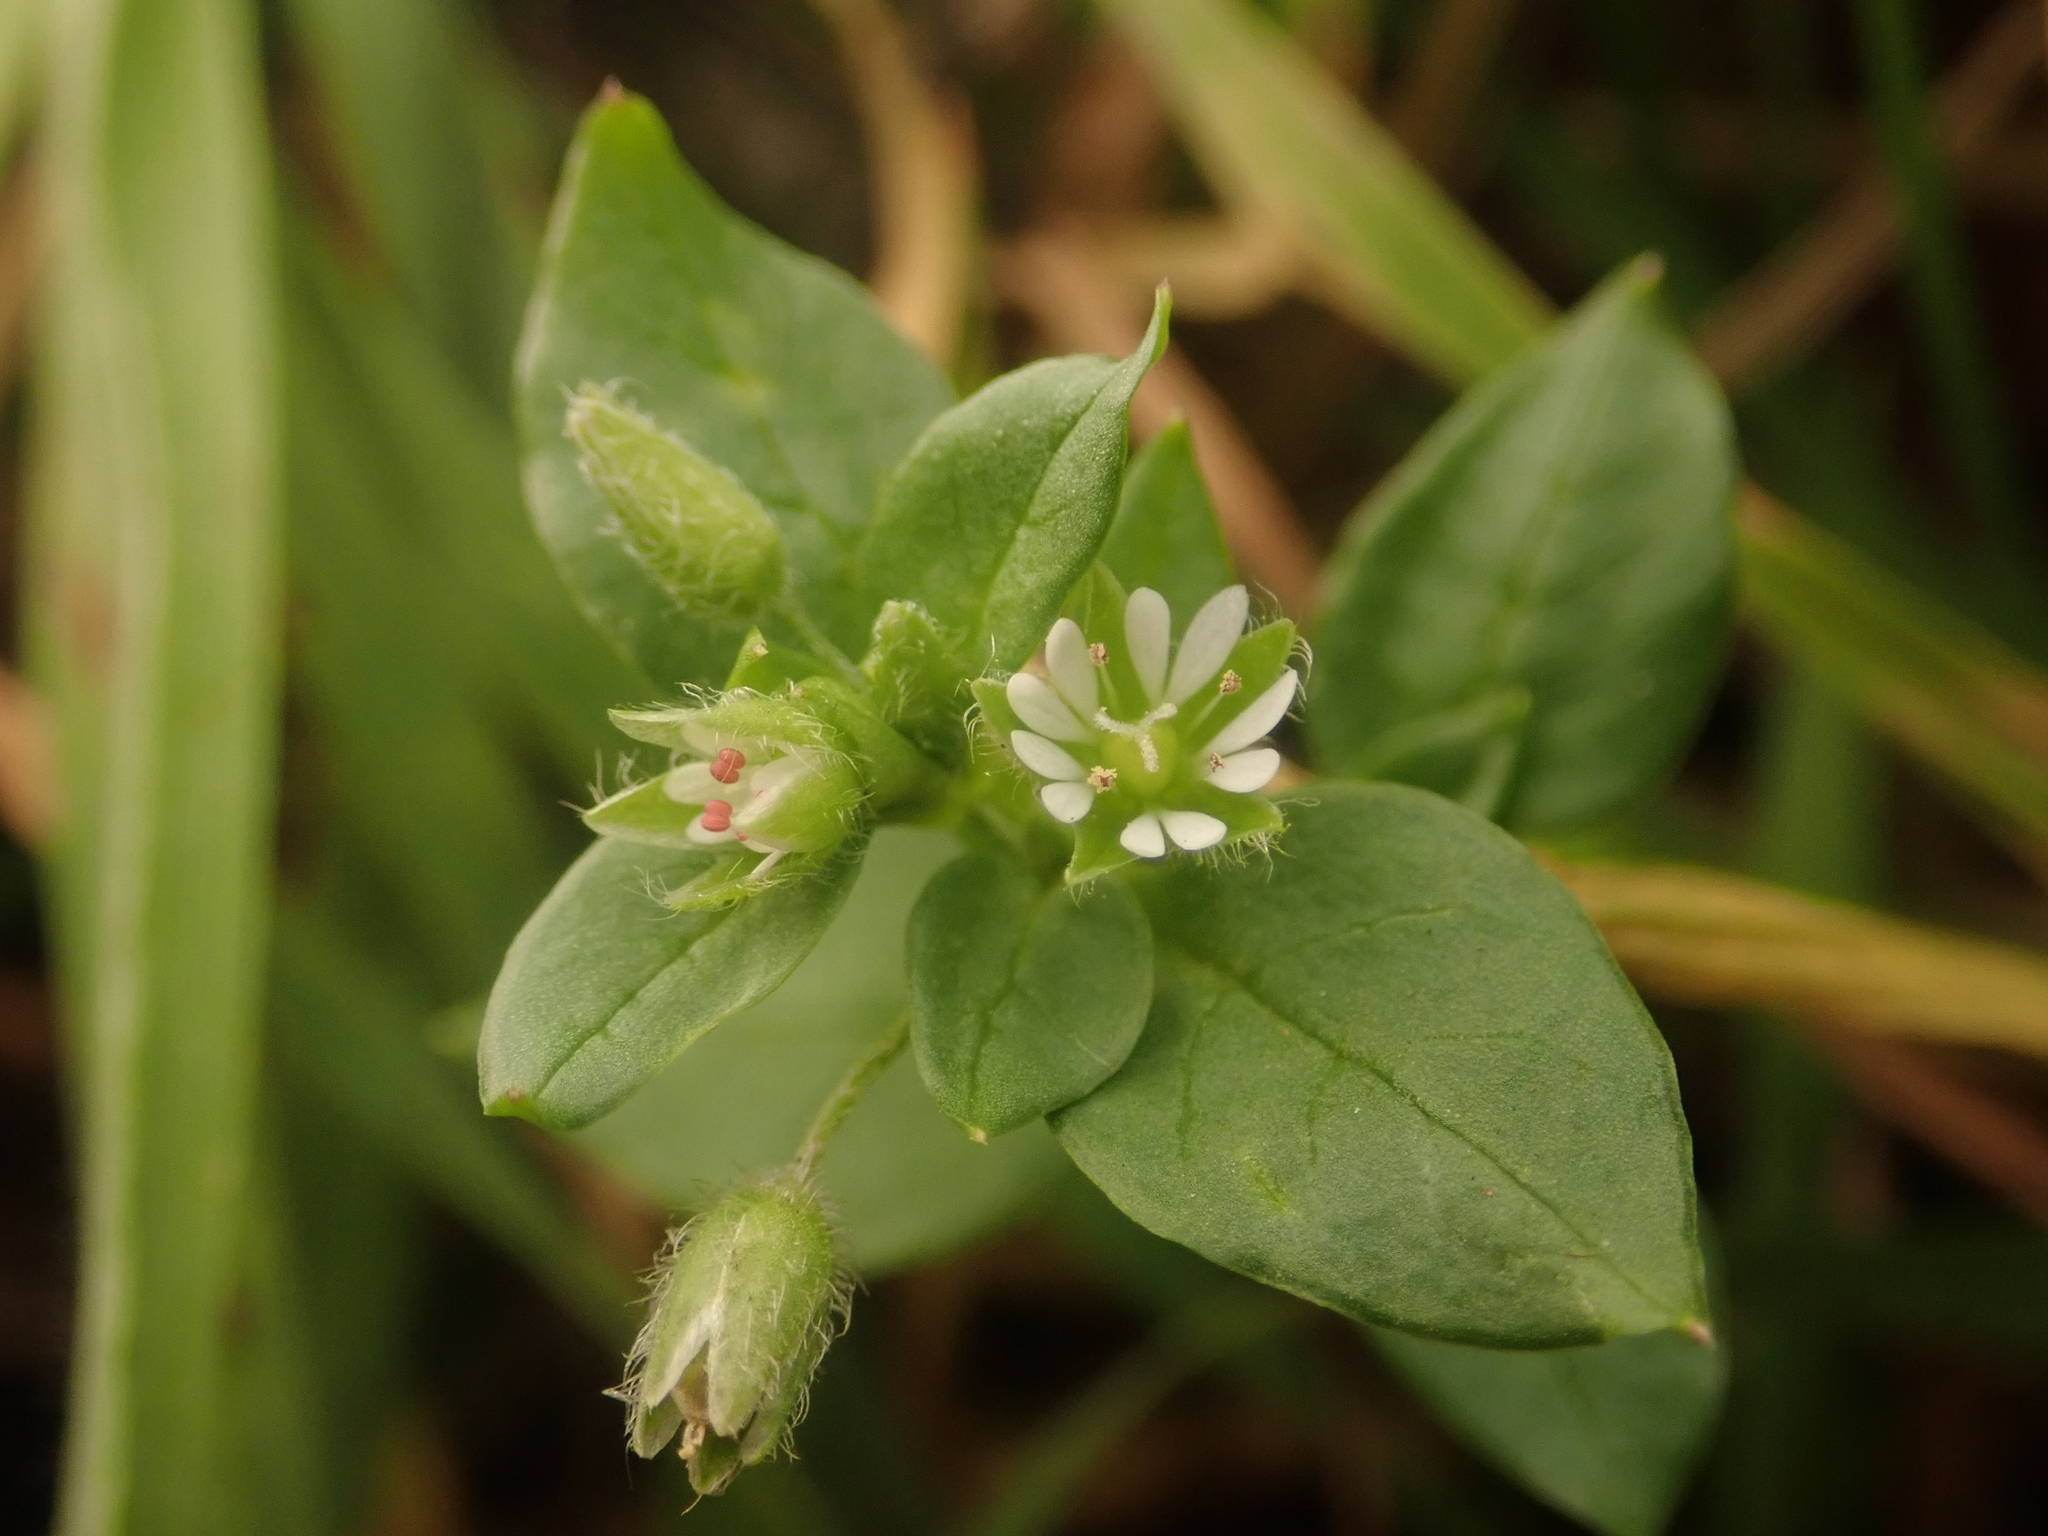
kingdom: Plantae
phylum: Tracheophyta
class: Magnoliopsida
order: Caryophyllales
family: Caryophyllaceae
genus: Stellaria
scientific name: Stellaria media
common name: Common chickweed
